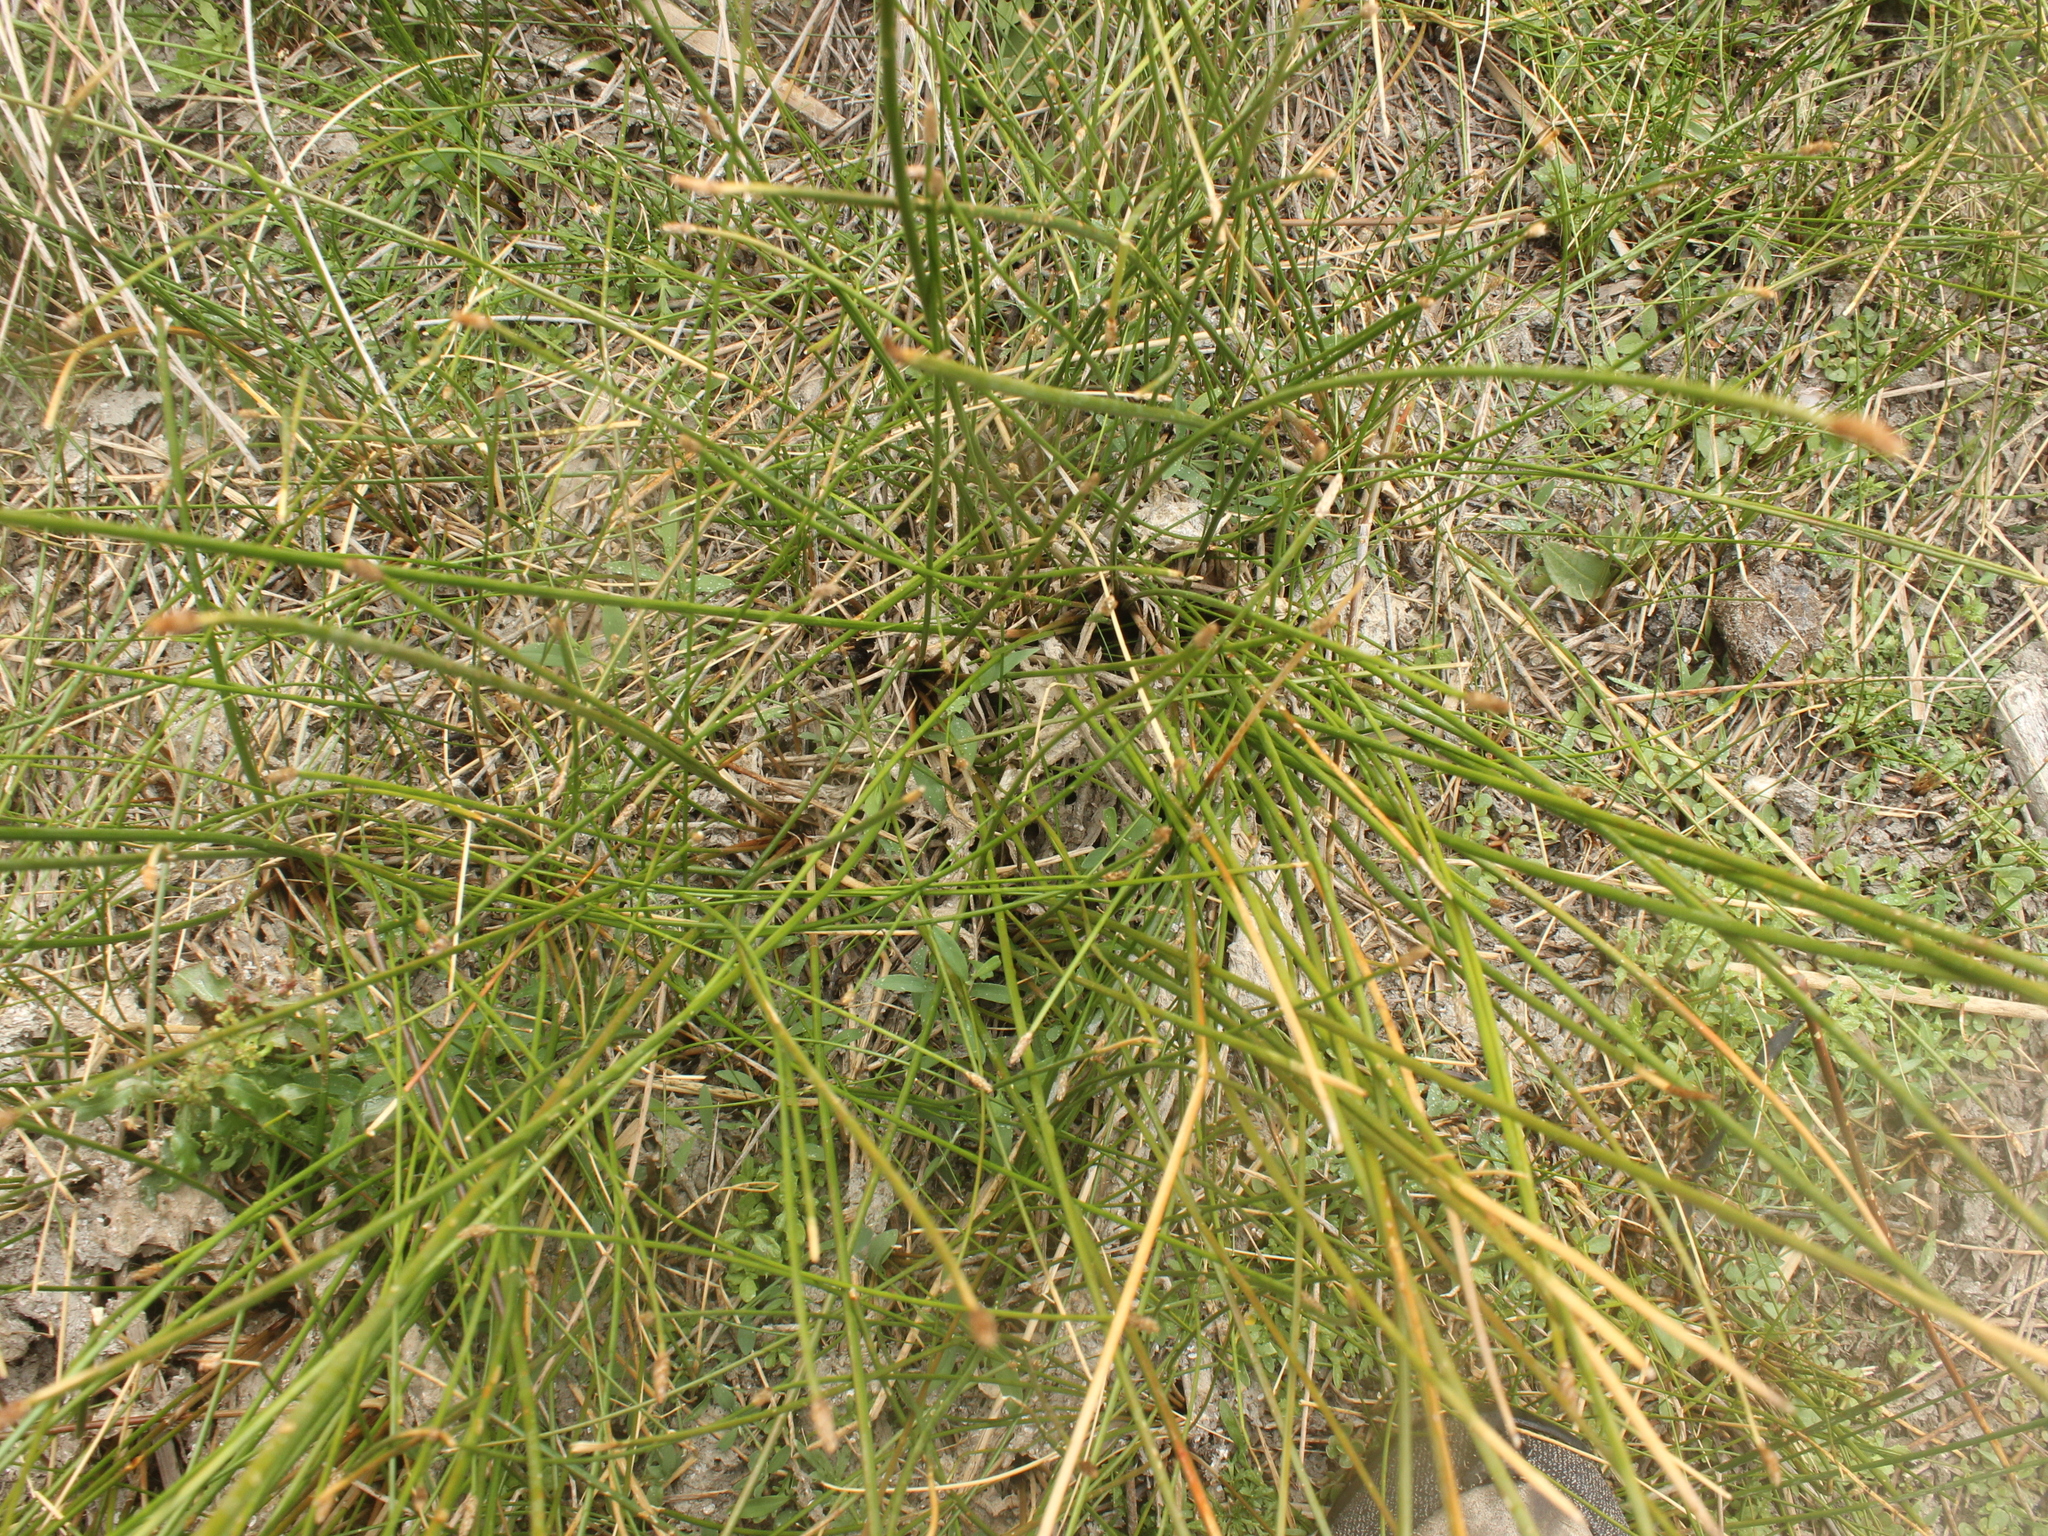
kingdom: Plantae
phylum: Tracheophyta
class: Liliopsida
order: Poales
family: Cyperaceae
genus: Eleocharis
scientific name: Eleocharis acuta
